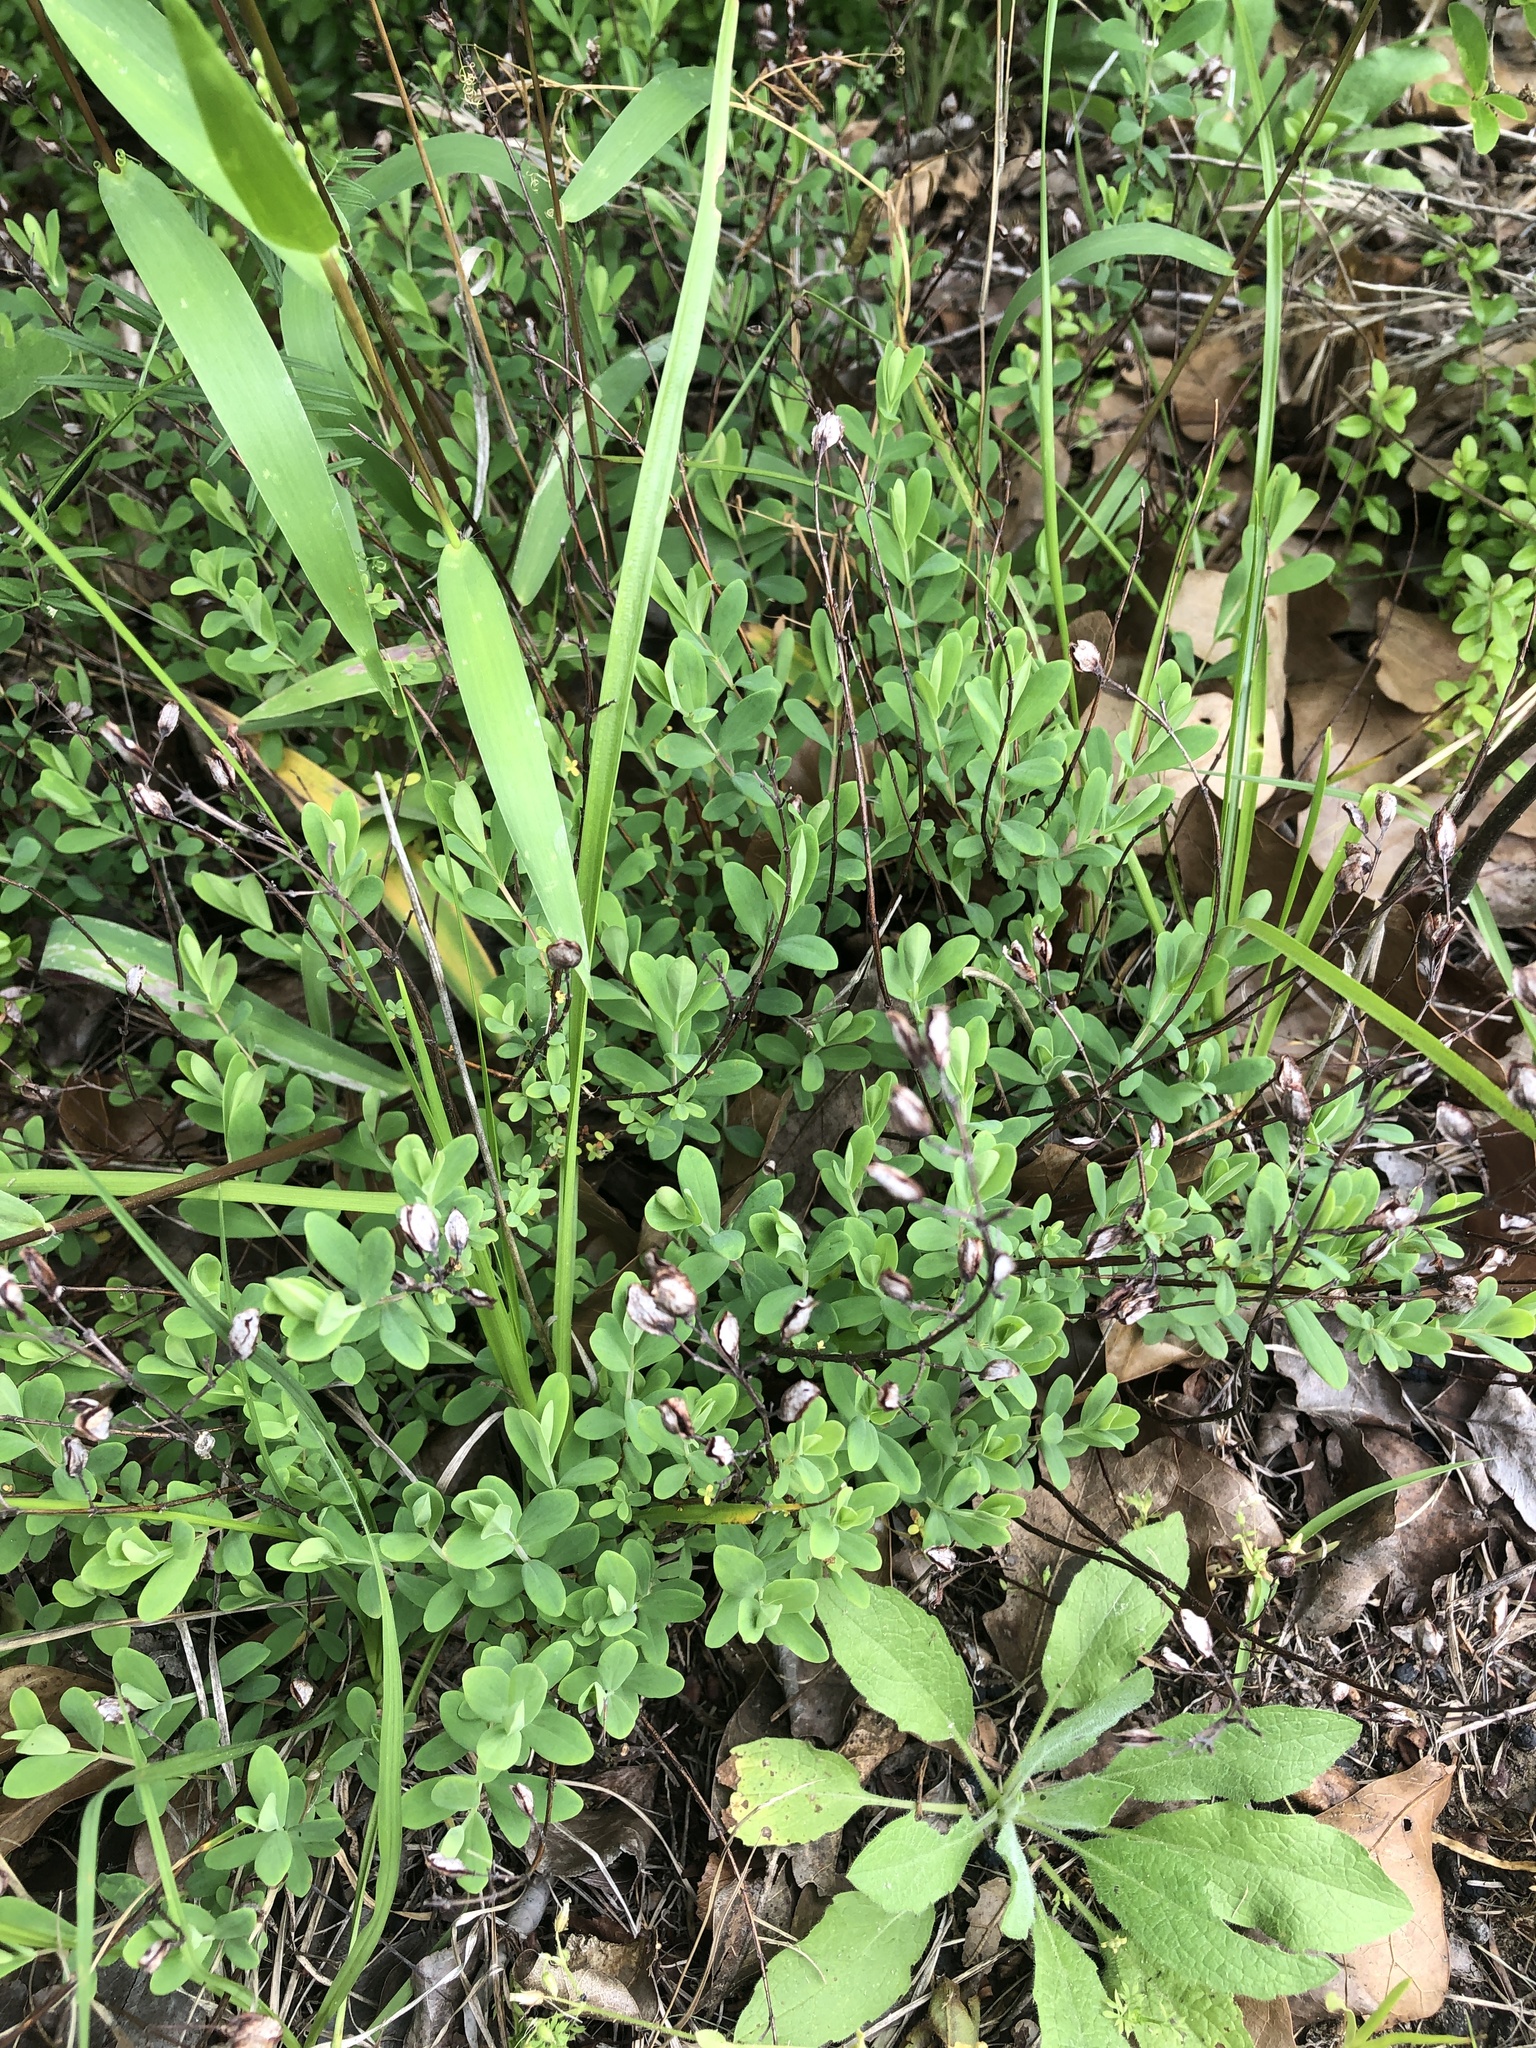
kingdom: Plantae
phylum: Tracheophyta
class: Magnoliopsida
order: Malpighiales
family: Hypericaceae
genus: Hypericum
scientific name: Hypericum hypericoides
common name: St. andrew's cross
